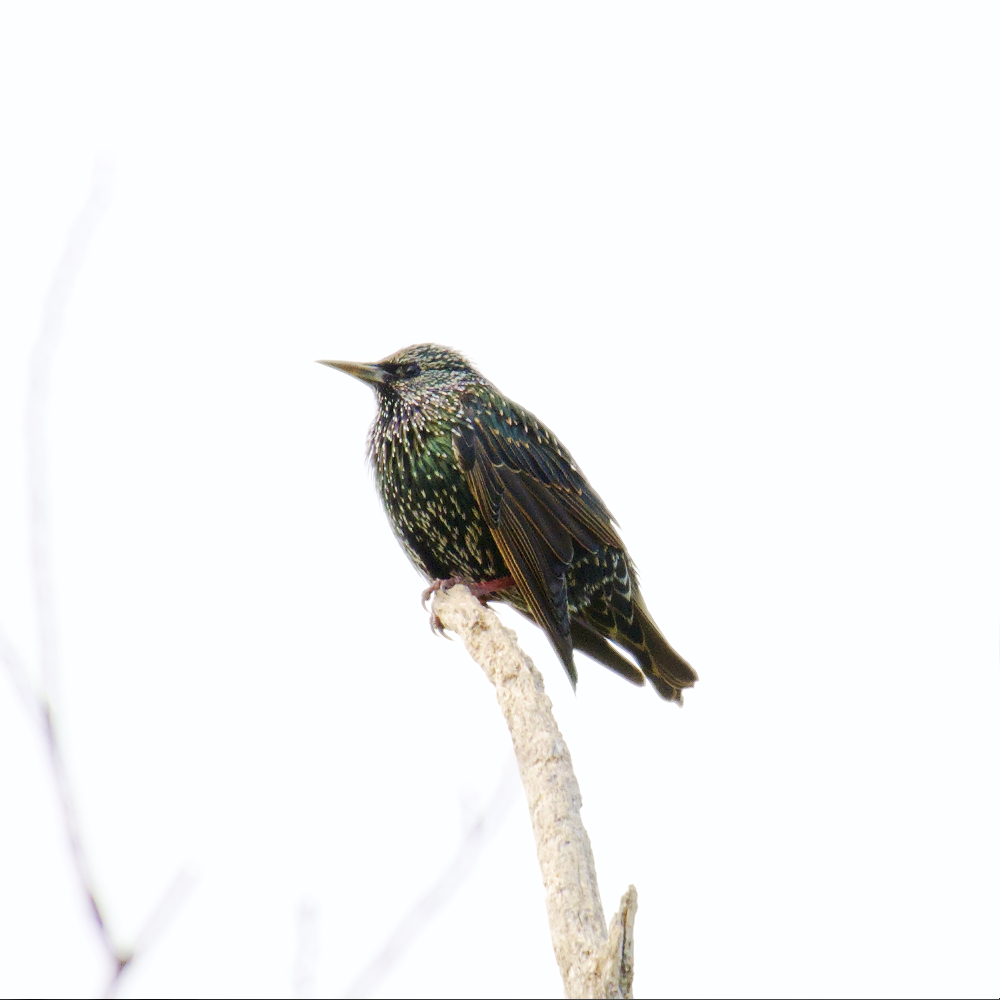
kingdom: Animalia
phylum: Chordata
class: Aves
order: Passeriformes
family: Sturnidae
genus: Sturnus
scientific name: Sturnus vulgaris
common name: Common starling
